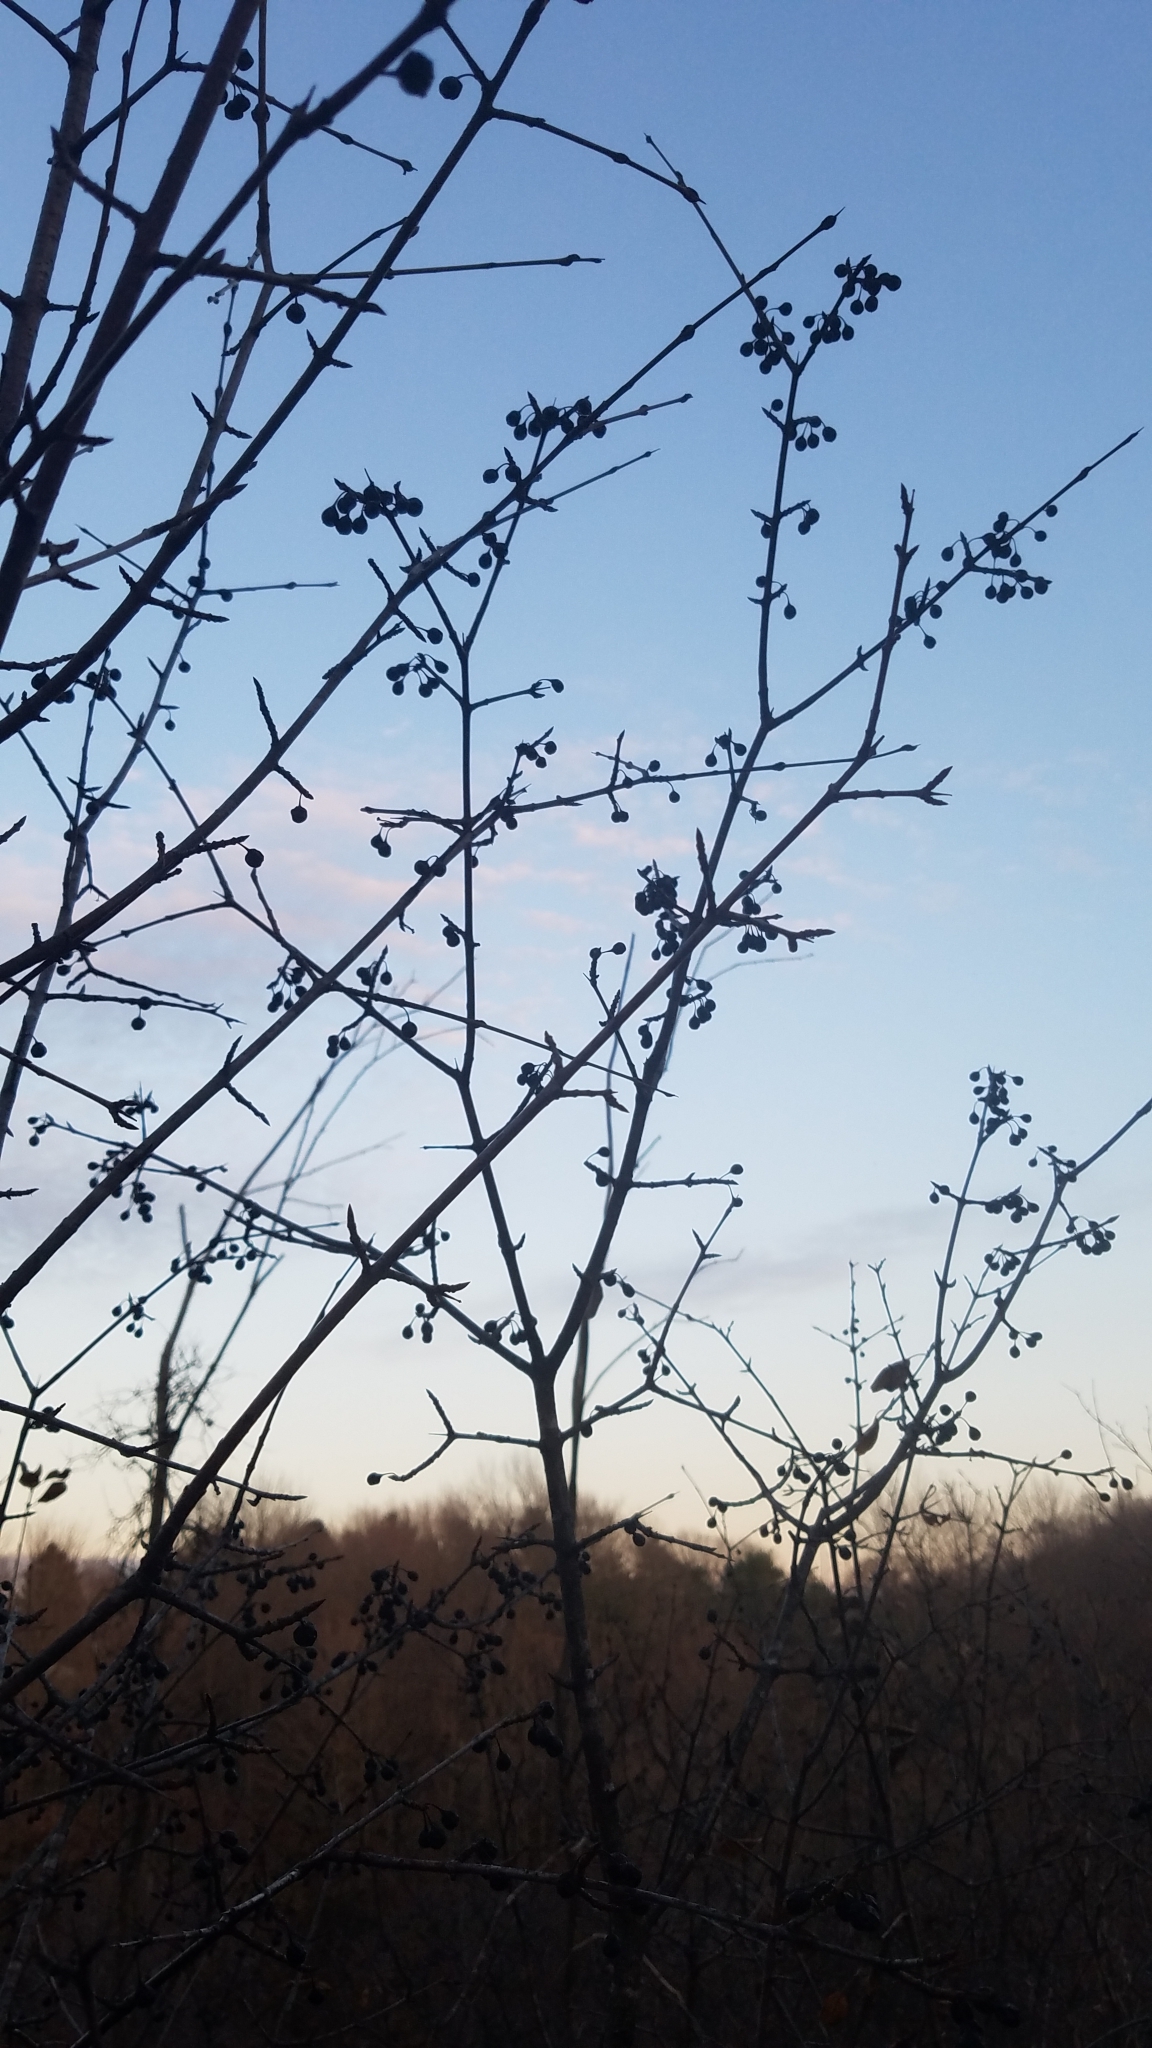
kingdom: Plantae
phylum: Tracheophyta
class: Magnoliopsida
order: Rosales
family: Rhamnaceae
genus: Rhamnus
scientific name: Rhamnus cathartica
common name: Common buckthorn
